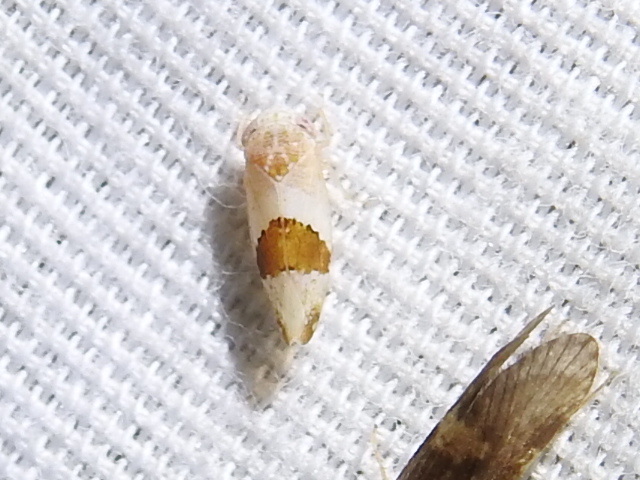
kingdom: Animalia
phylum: Arthropoda
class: Insecta
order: Hemiptera
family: Cicadellidae
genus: Norvellina
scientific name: Norvellina seminuda
